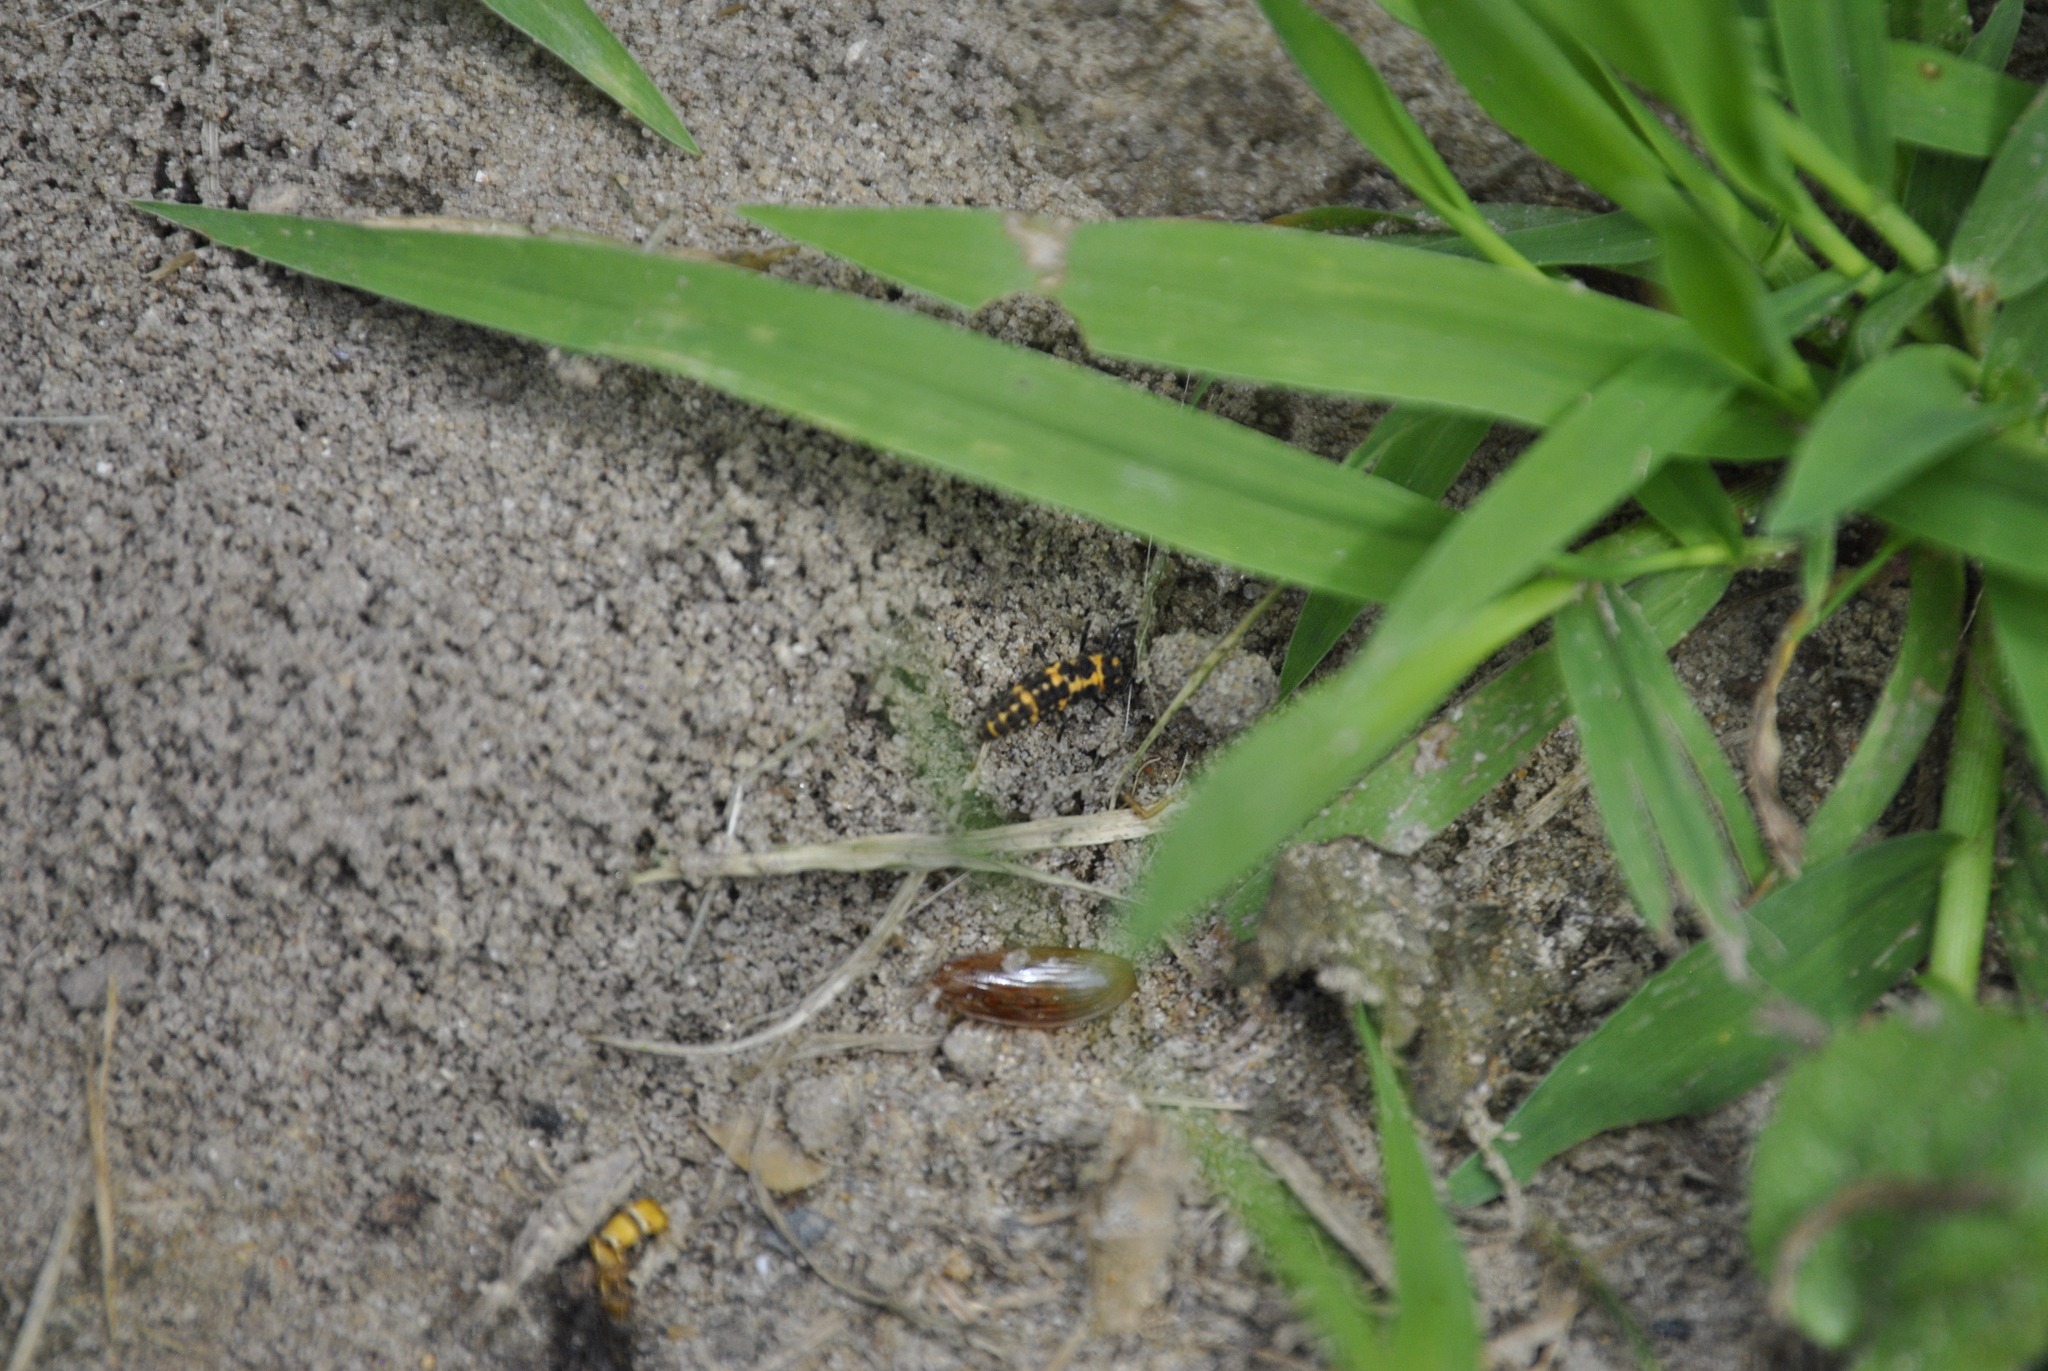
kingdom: Animalia
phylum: Arthropoda
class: Insecta
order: Coleoptera
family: Coccinellidae
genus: Coleomegilla
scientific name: Coleomegilla maculata
